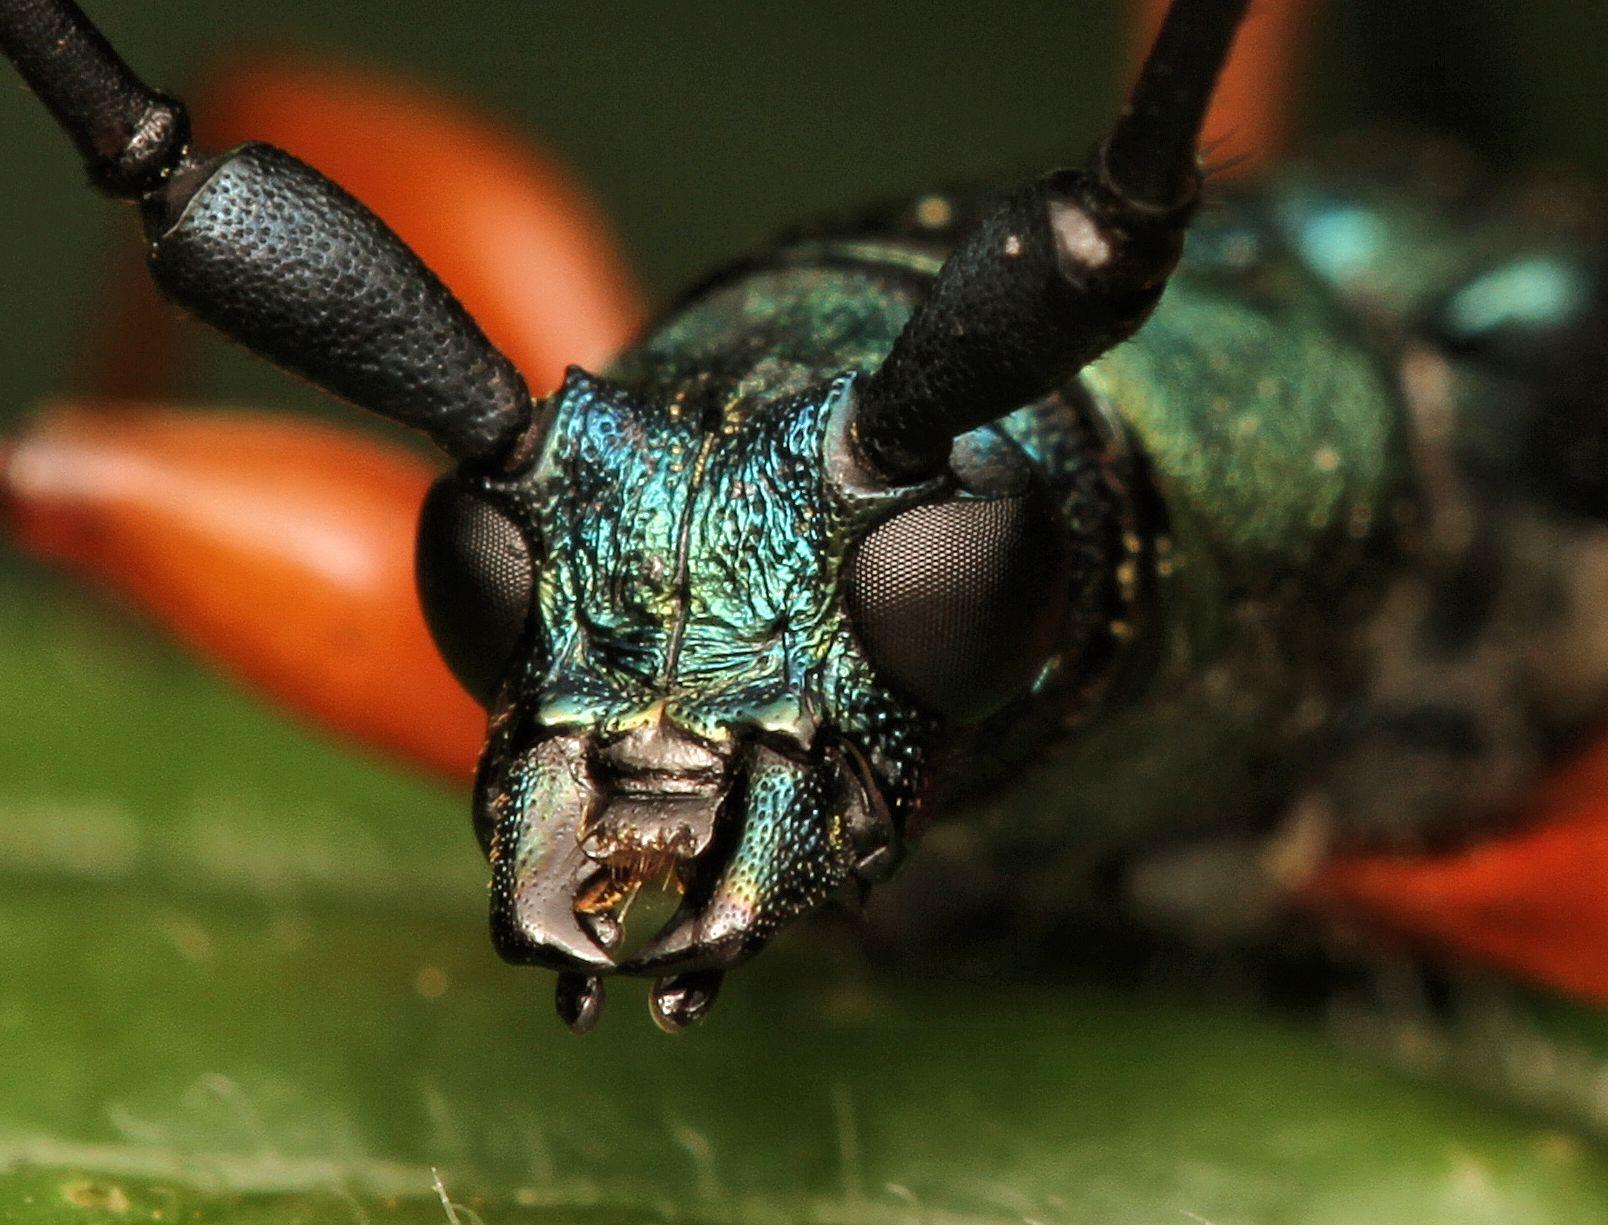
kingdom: Animalia
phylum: Arthropoda
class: Insecta
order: Coleoptera
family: Cerambycidae
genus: Litopus
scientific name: Litopus latipes
